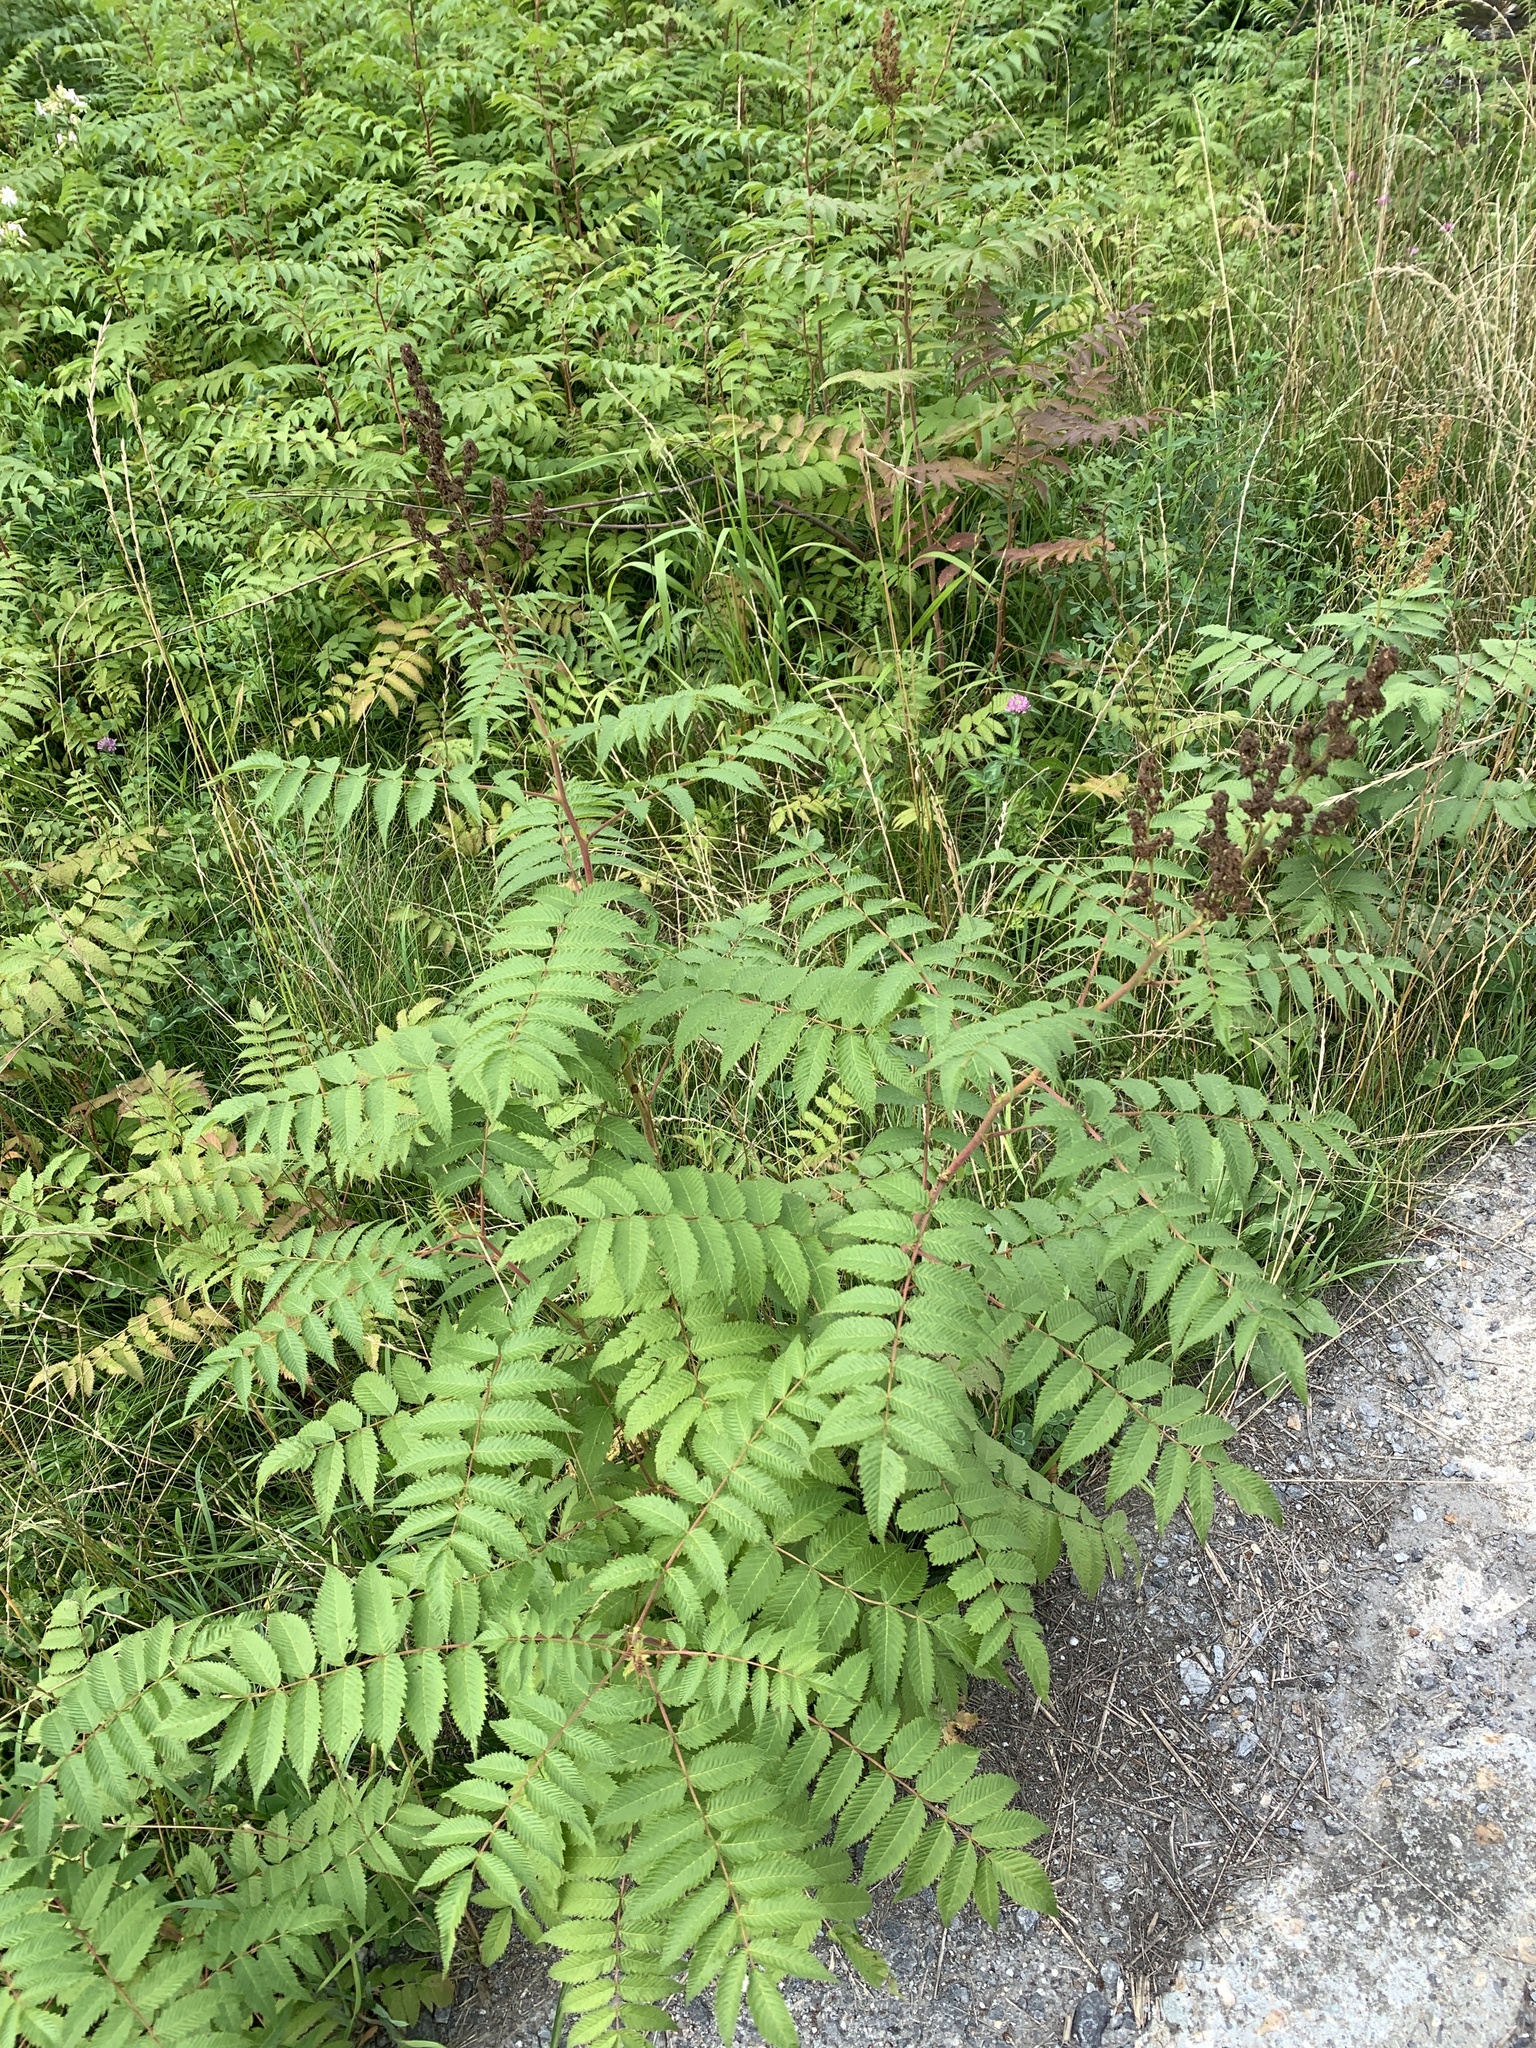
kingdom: Plantae
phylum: Tracheophyta
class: Magnoliopsida
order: Rosales
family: Rosaceae
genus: Sorbaria
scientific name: Sorbaria sorbifolia
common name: False spiraea
